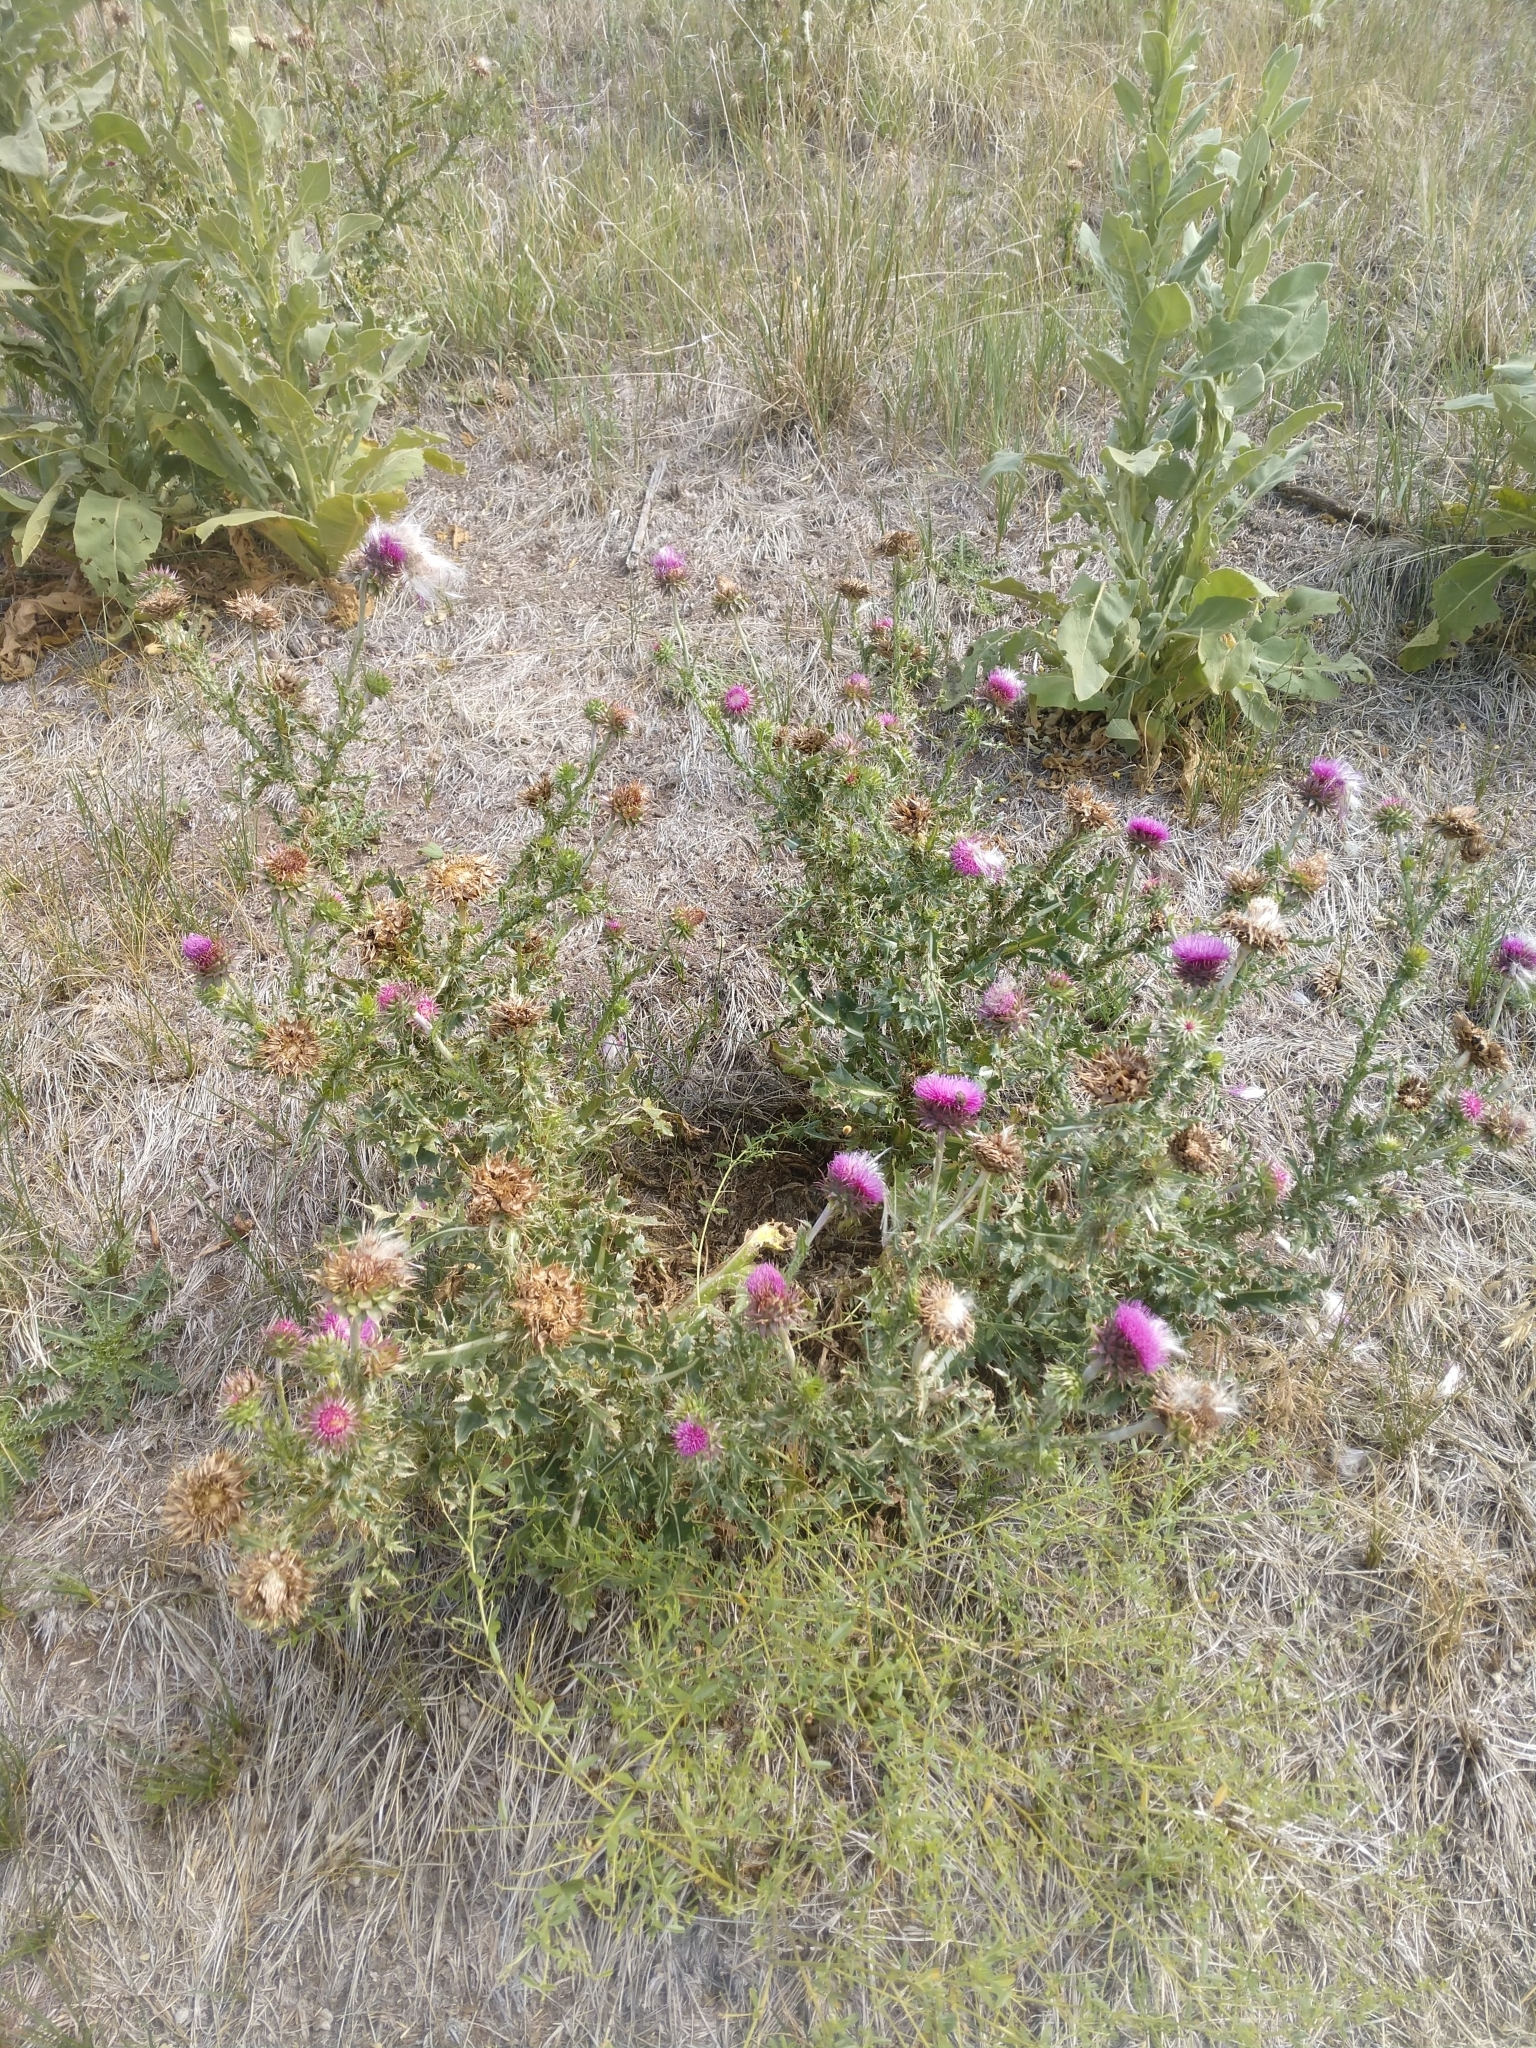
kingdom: Plantae
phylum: Tracheophyta
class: Magnoliopsida
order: Asterales
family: Asteraceae
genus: Carduus
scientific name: Carduus nutans
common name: Musk thistle
